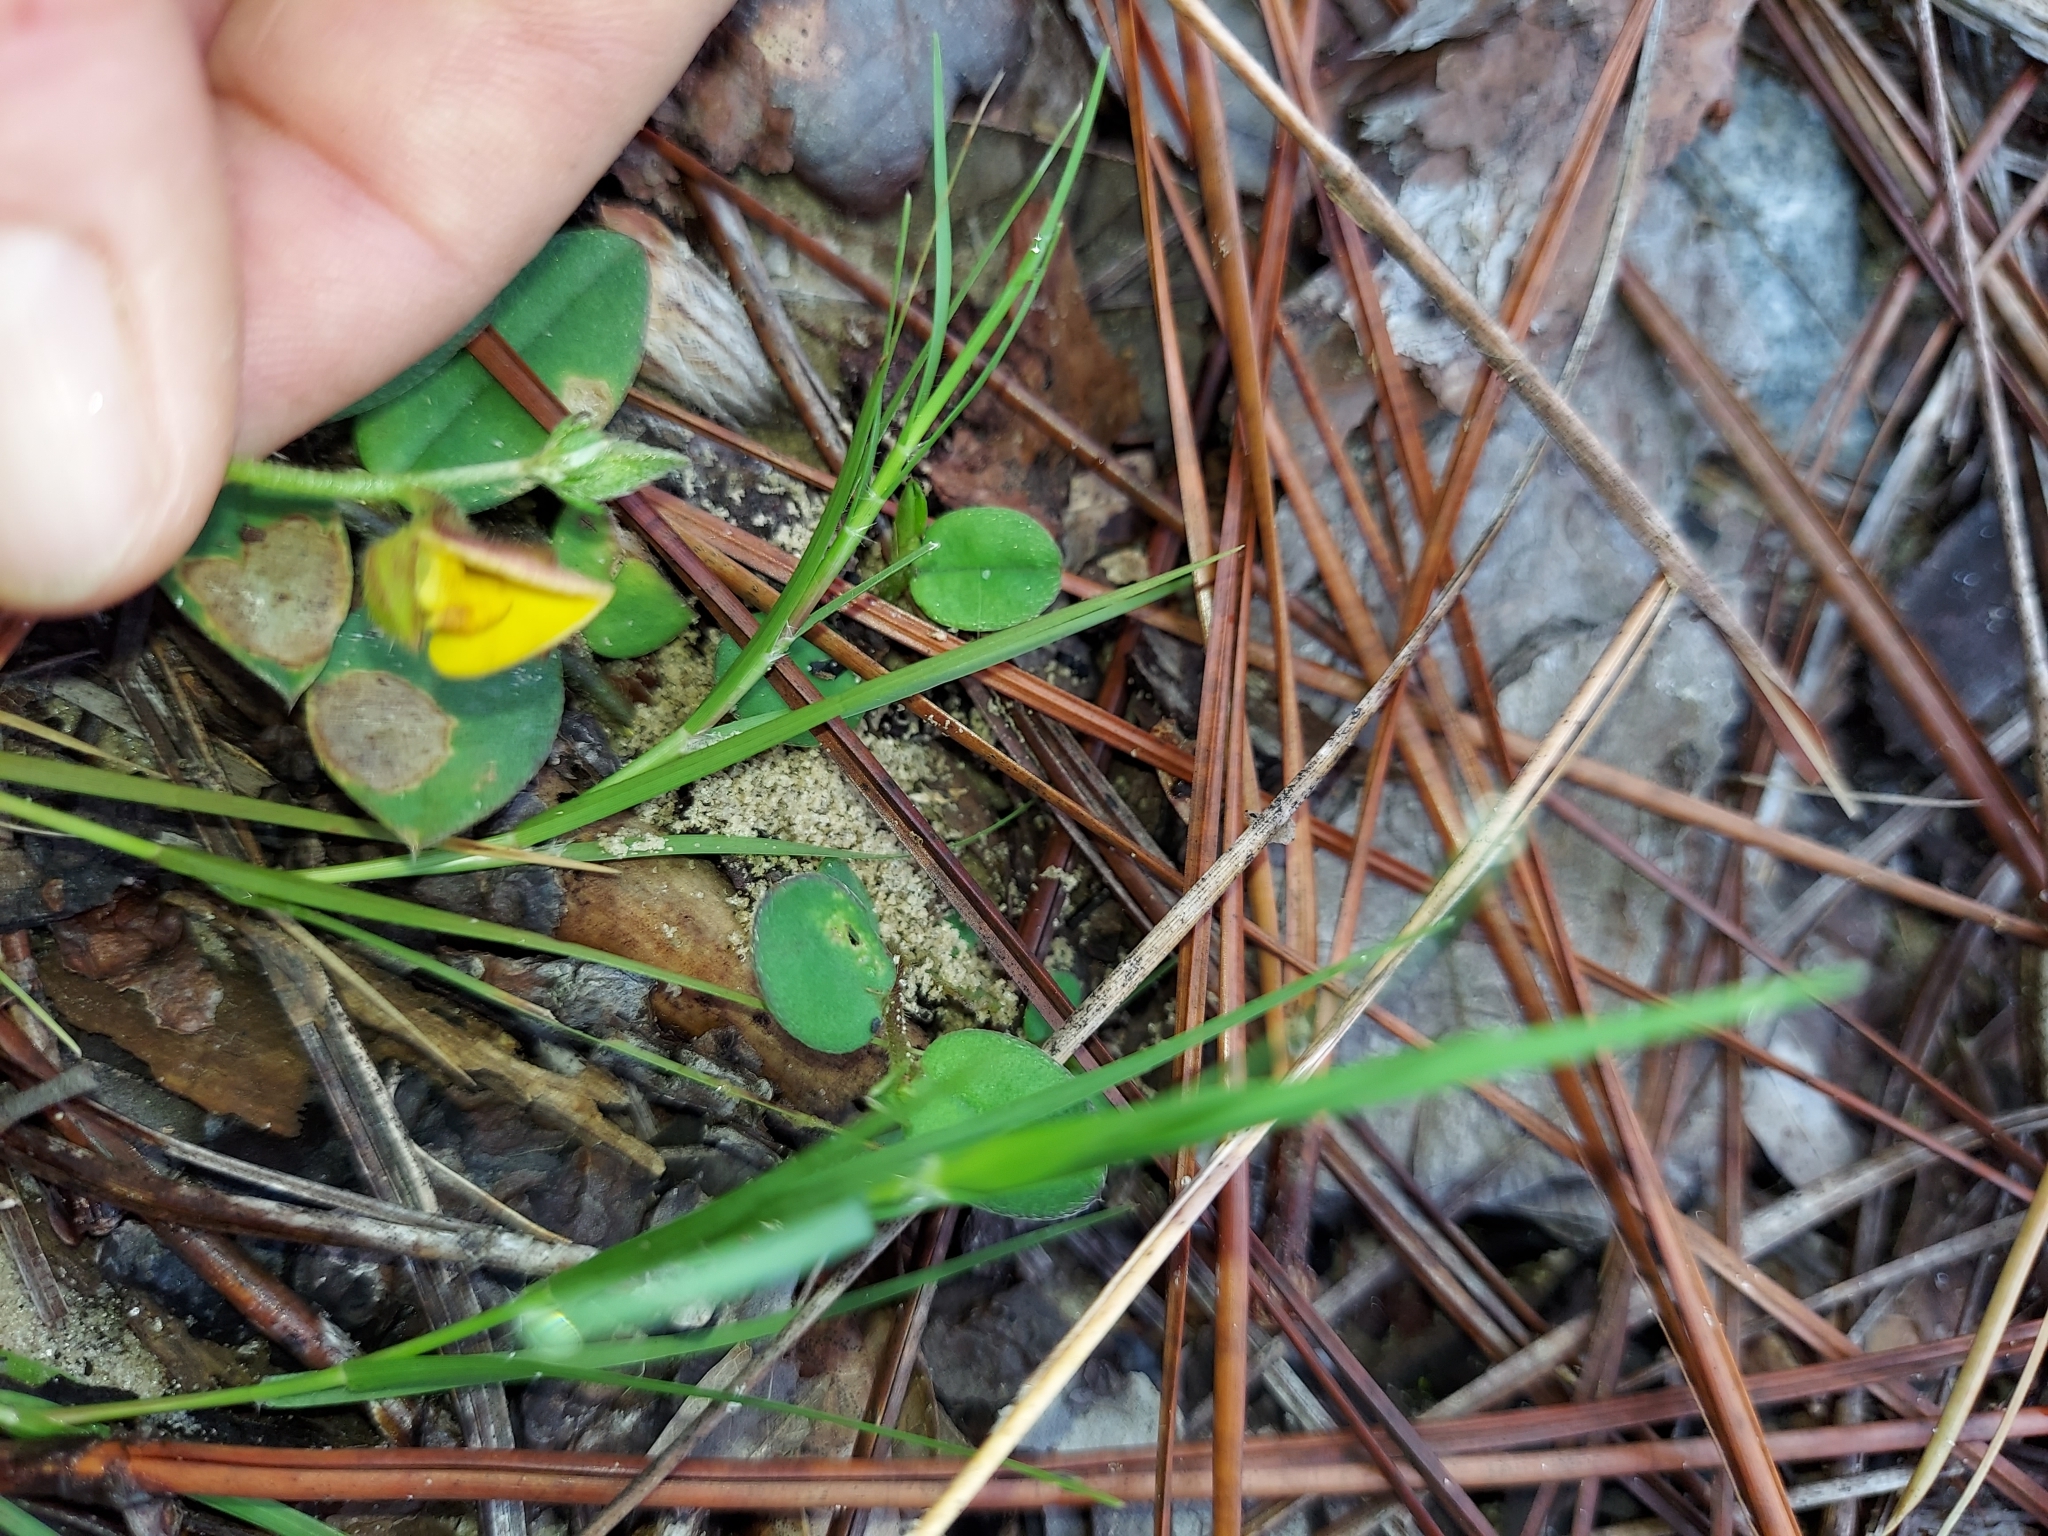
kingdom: Plantae
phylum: Tracheophyta
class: Magnoliopsida
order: Fabales
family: Fabaceae
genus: Crotalaria
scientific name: Crotalaria rotundifolia
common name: Prostrate rattlebox
